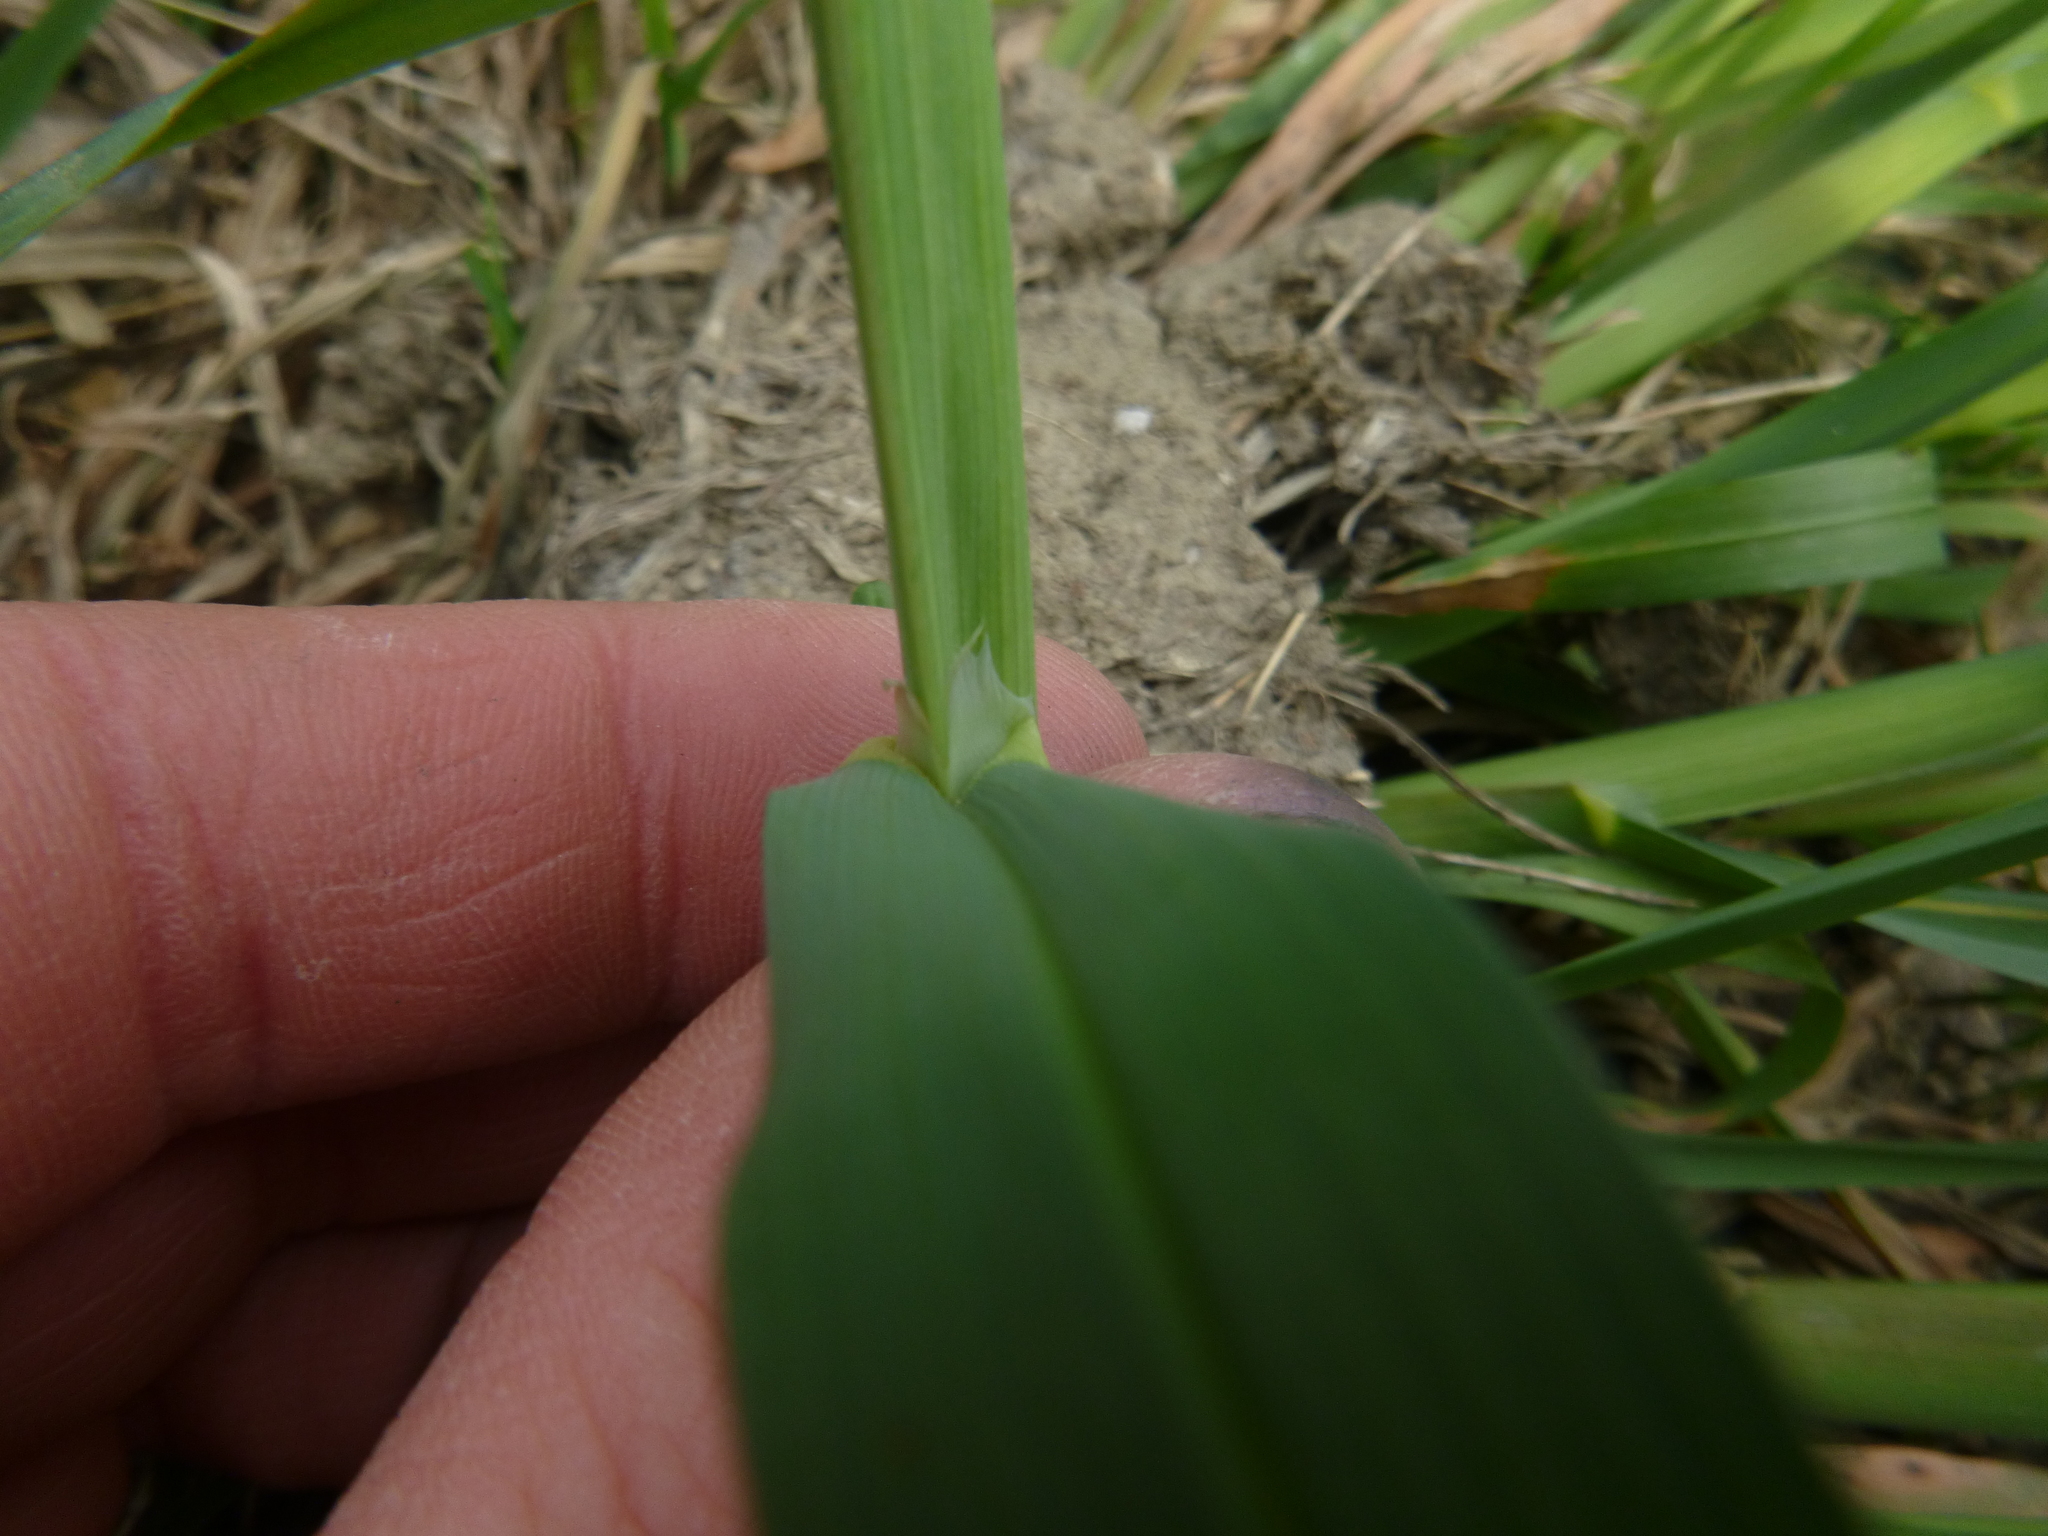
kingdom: Plantae
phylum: Tracheophyta
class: Liliopsida
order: Poales
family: Poaceae
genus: Dactylis
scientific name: Dactylis glomerata
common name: Orchardgrass
